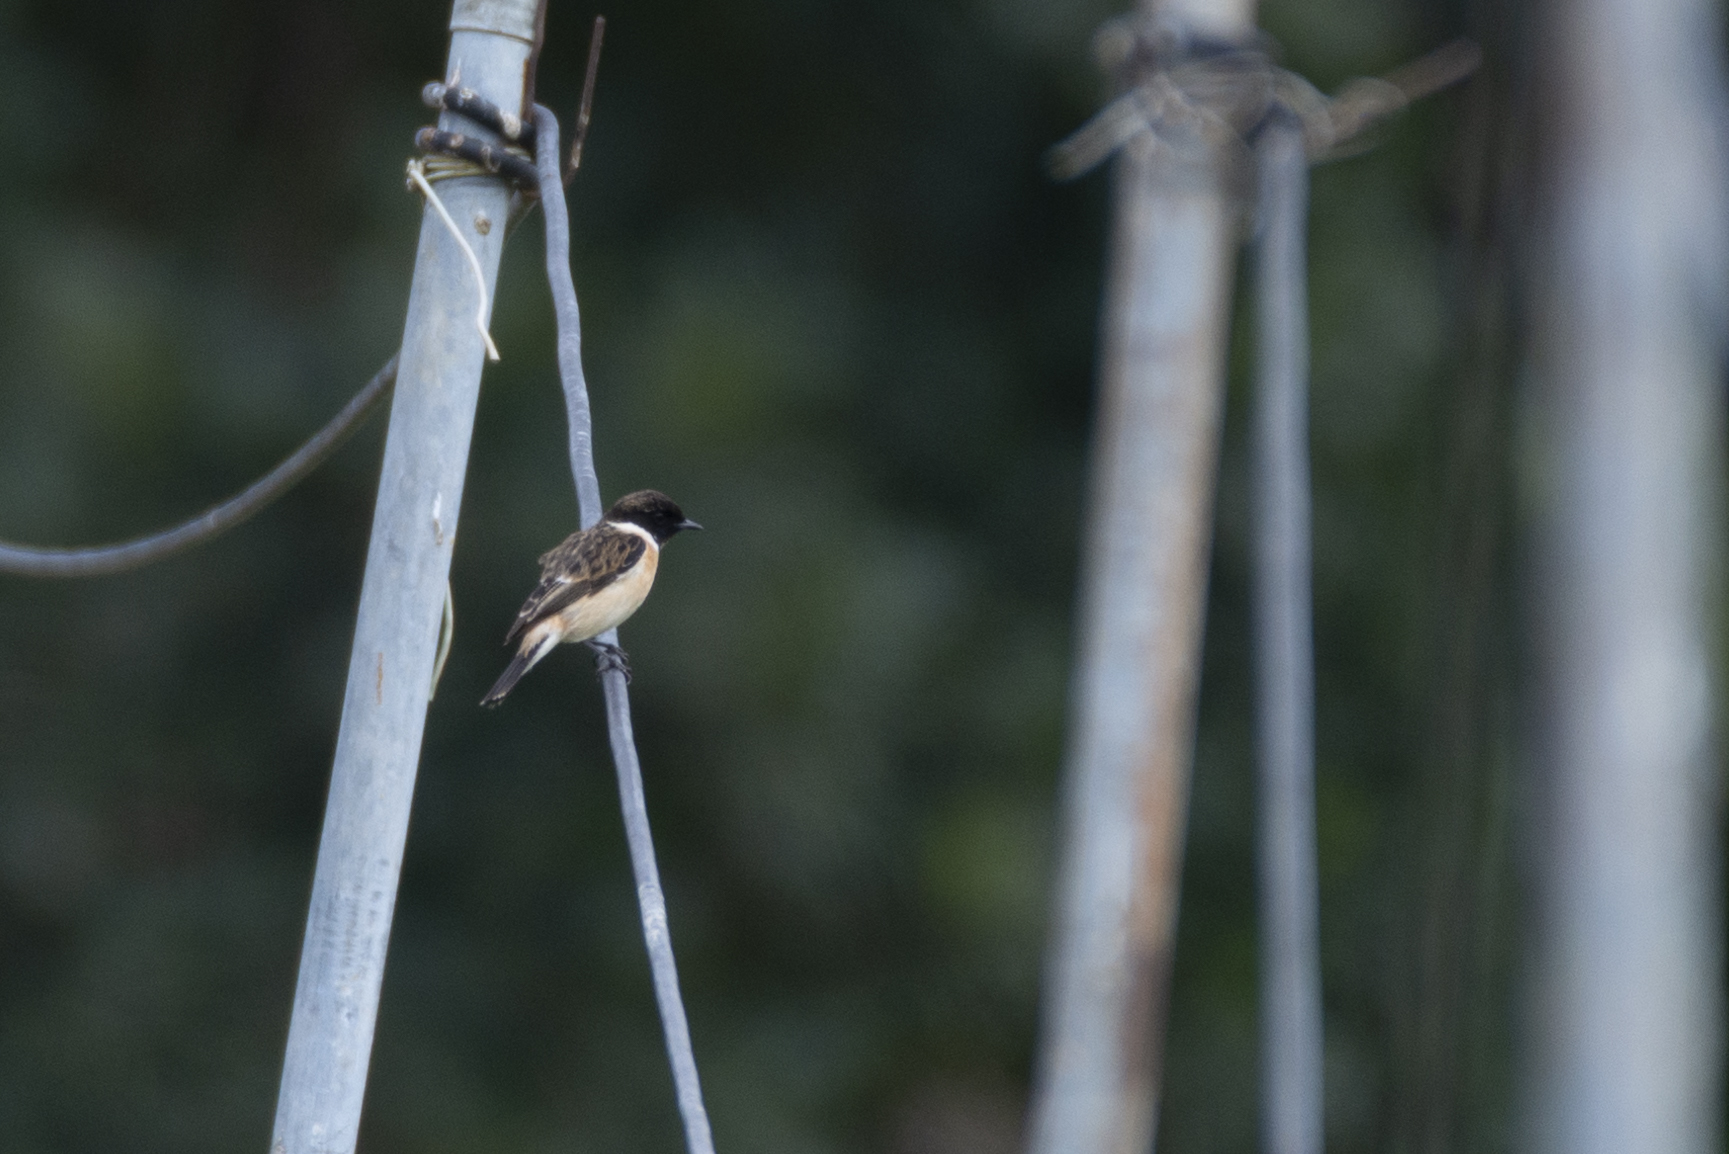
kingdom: Animalia
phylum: Chordata
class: Aves
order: Passeriformes
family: Muscicapidae
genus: Saxicola
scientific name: Saxicola maurus
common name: Siberian stonechat
